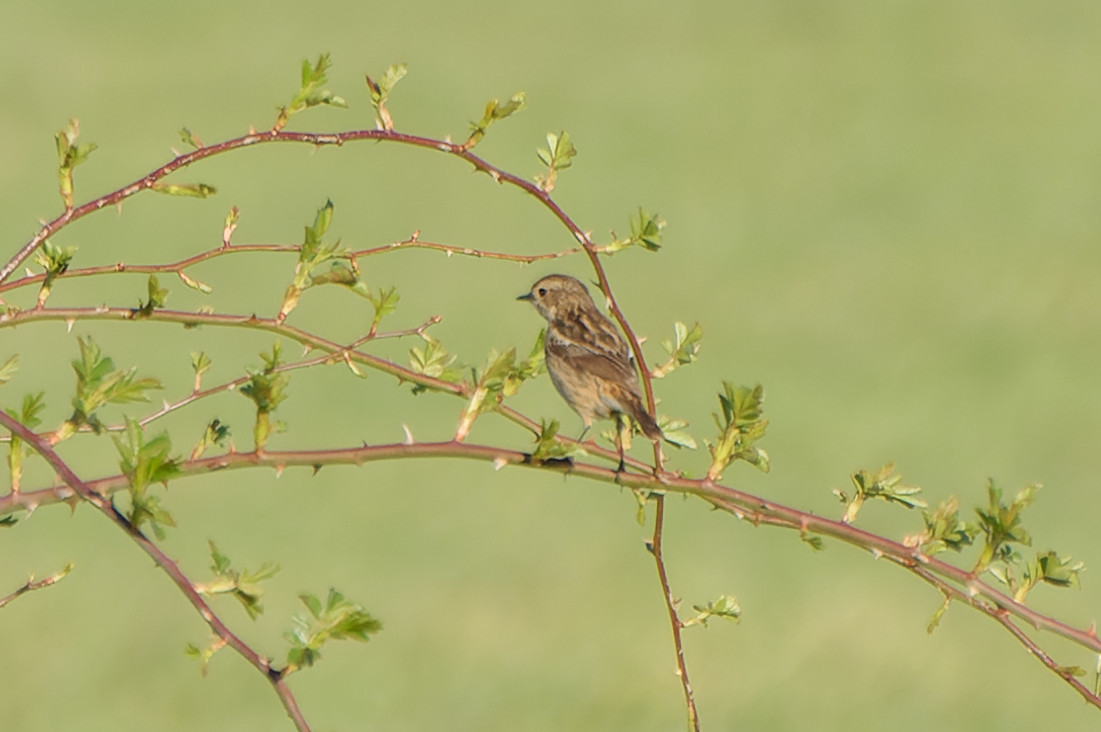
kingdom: Animalia
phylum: Chordata
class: Aves
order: Passeriformes
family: Muscicapidae
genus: Saxicola
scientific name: Saxicola rubicola
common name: European stonechat
